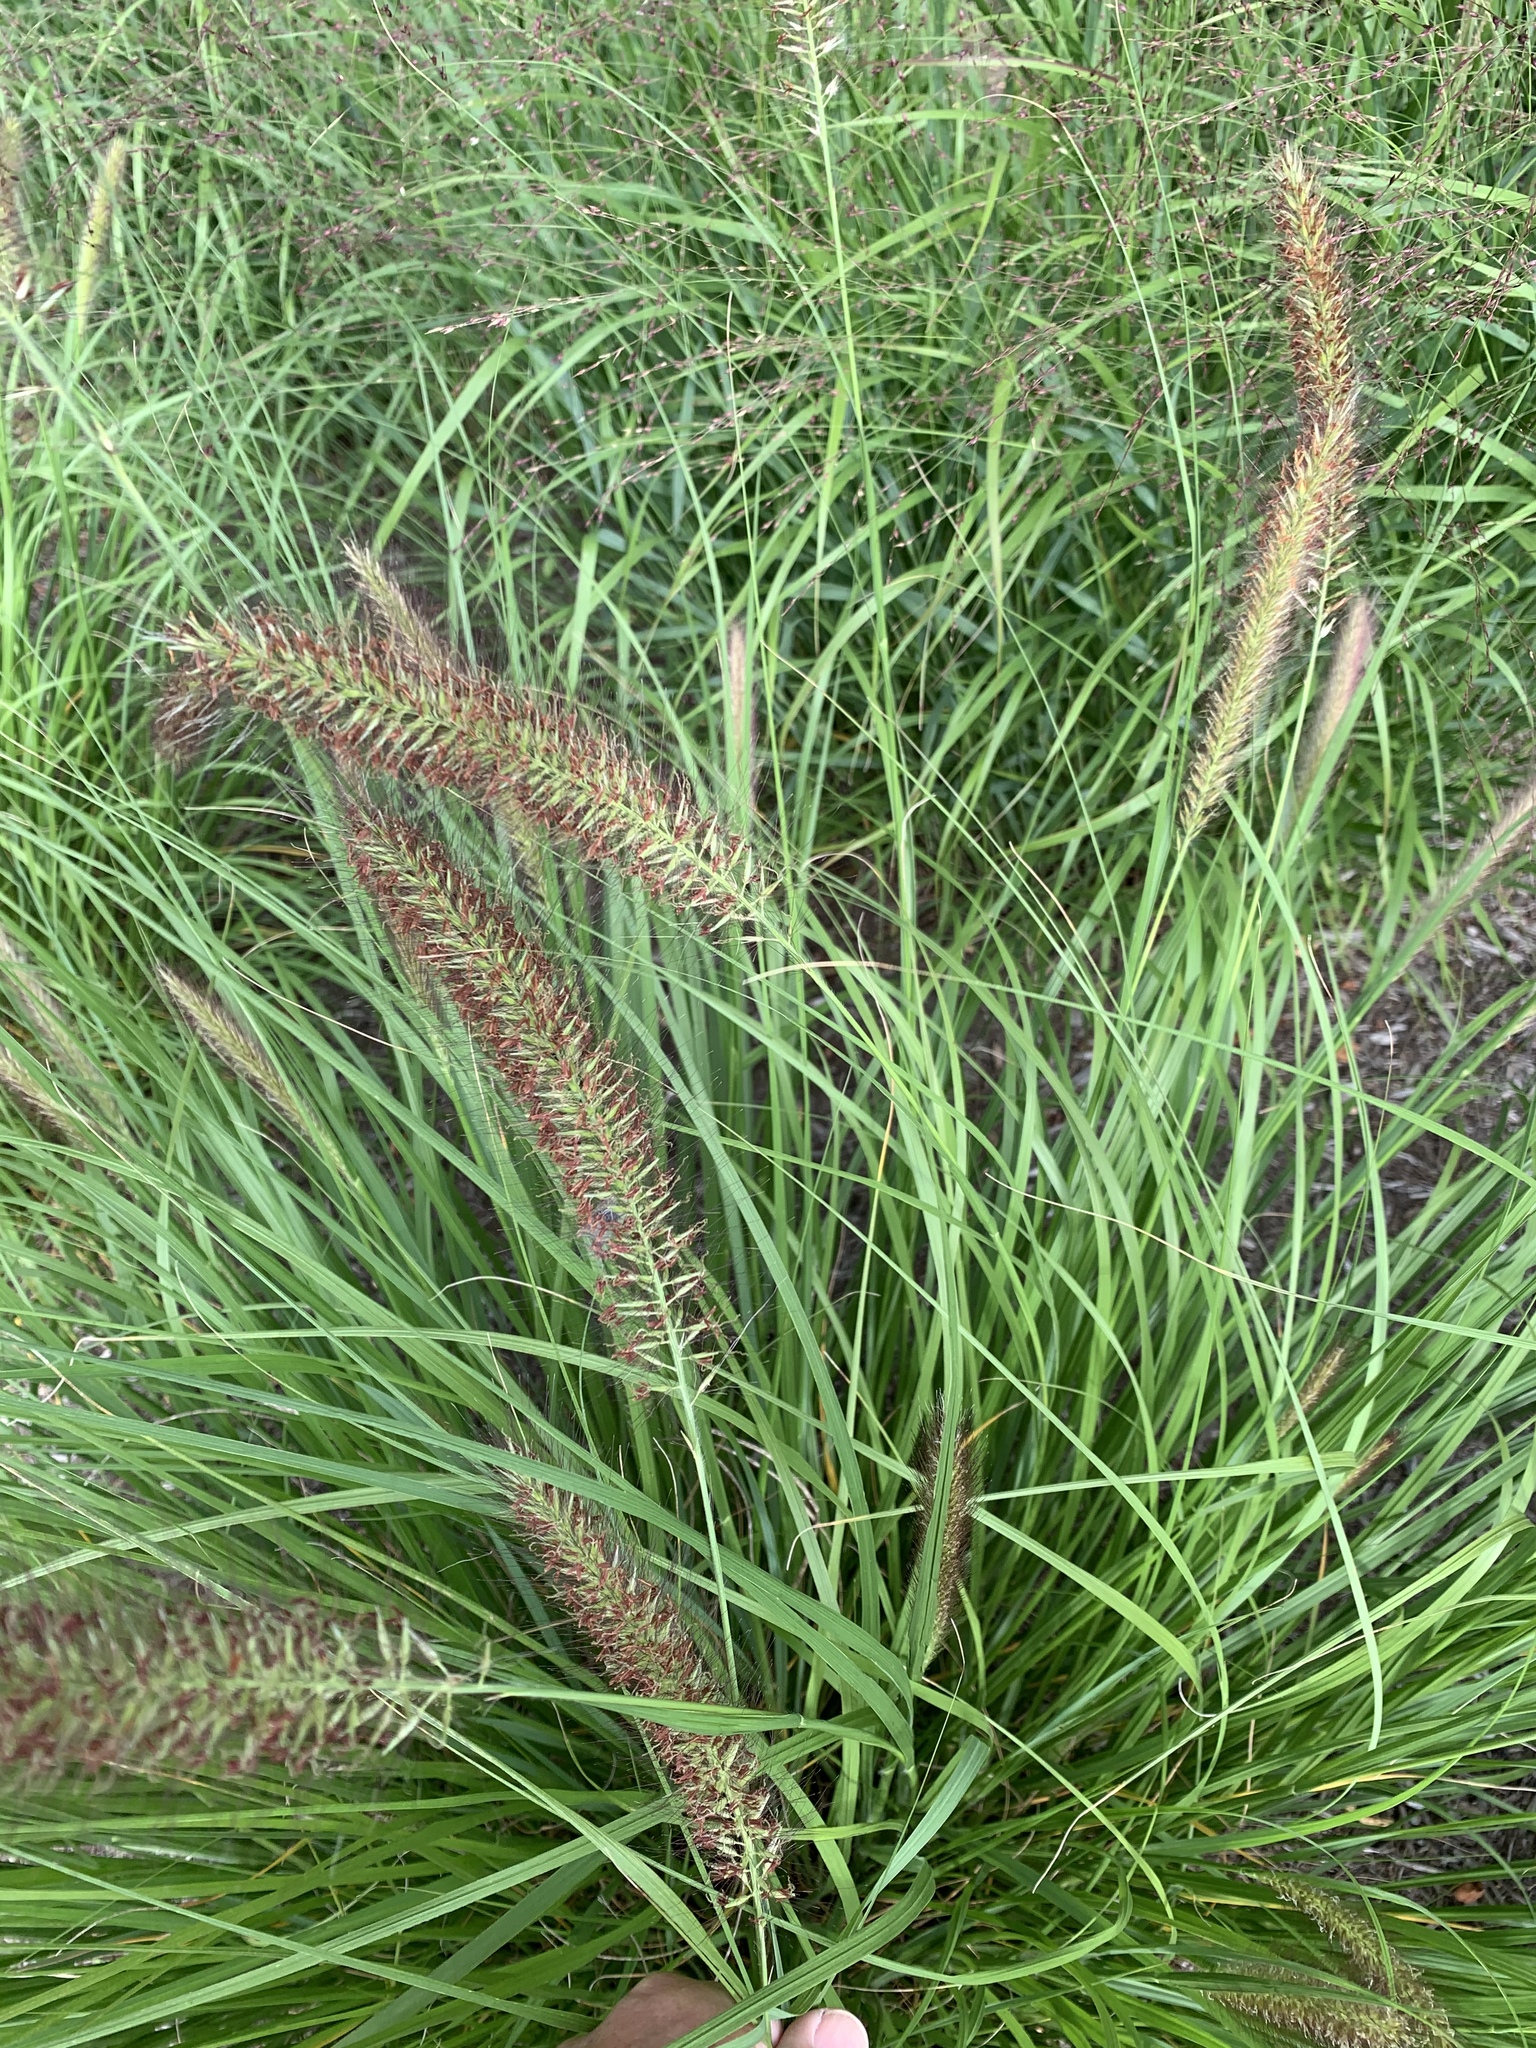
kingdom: Plantae
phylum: Tracheophyta
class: Liliopsida
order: Poales
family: Poaceae
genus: Cenchrus
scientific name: Cenchrus alopecuroides
